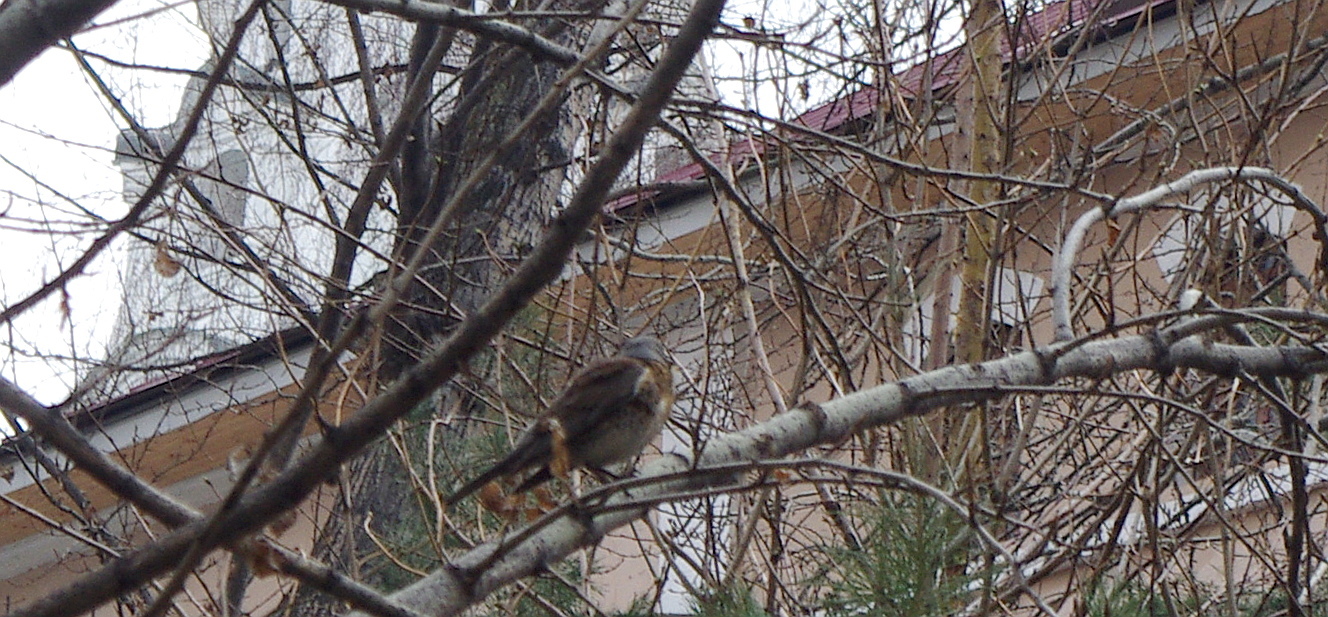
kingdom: Animalia
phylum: Chordata
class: Aves
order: Passeriformes
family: Turdidae
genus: Turdus
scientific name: Turdus pilaris
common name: Fieldfare
